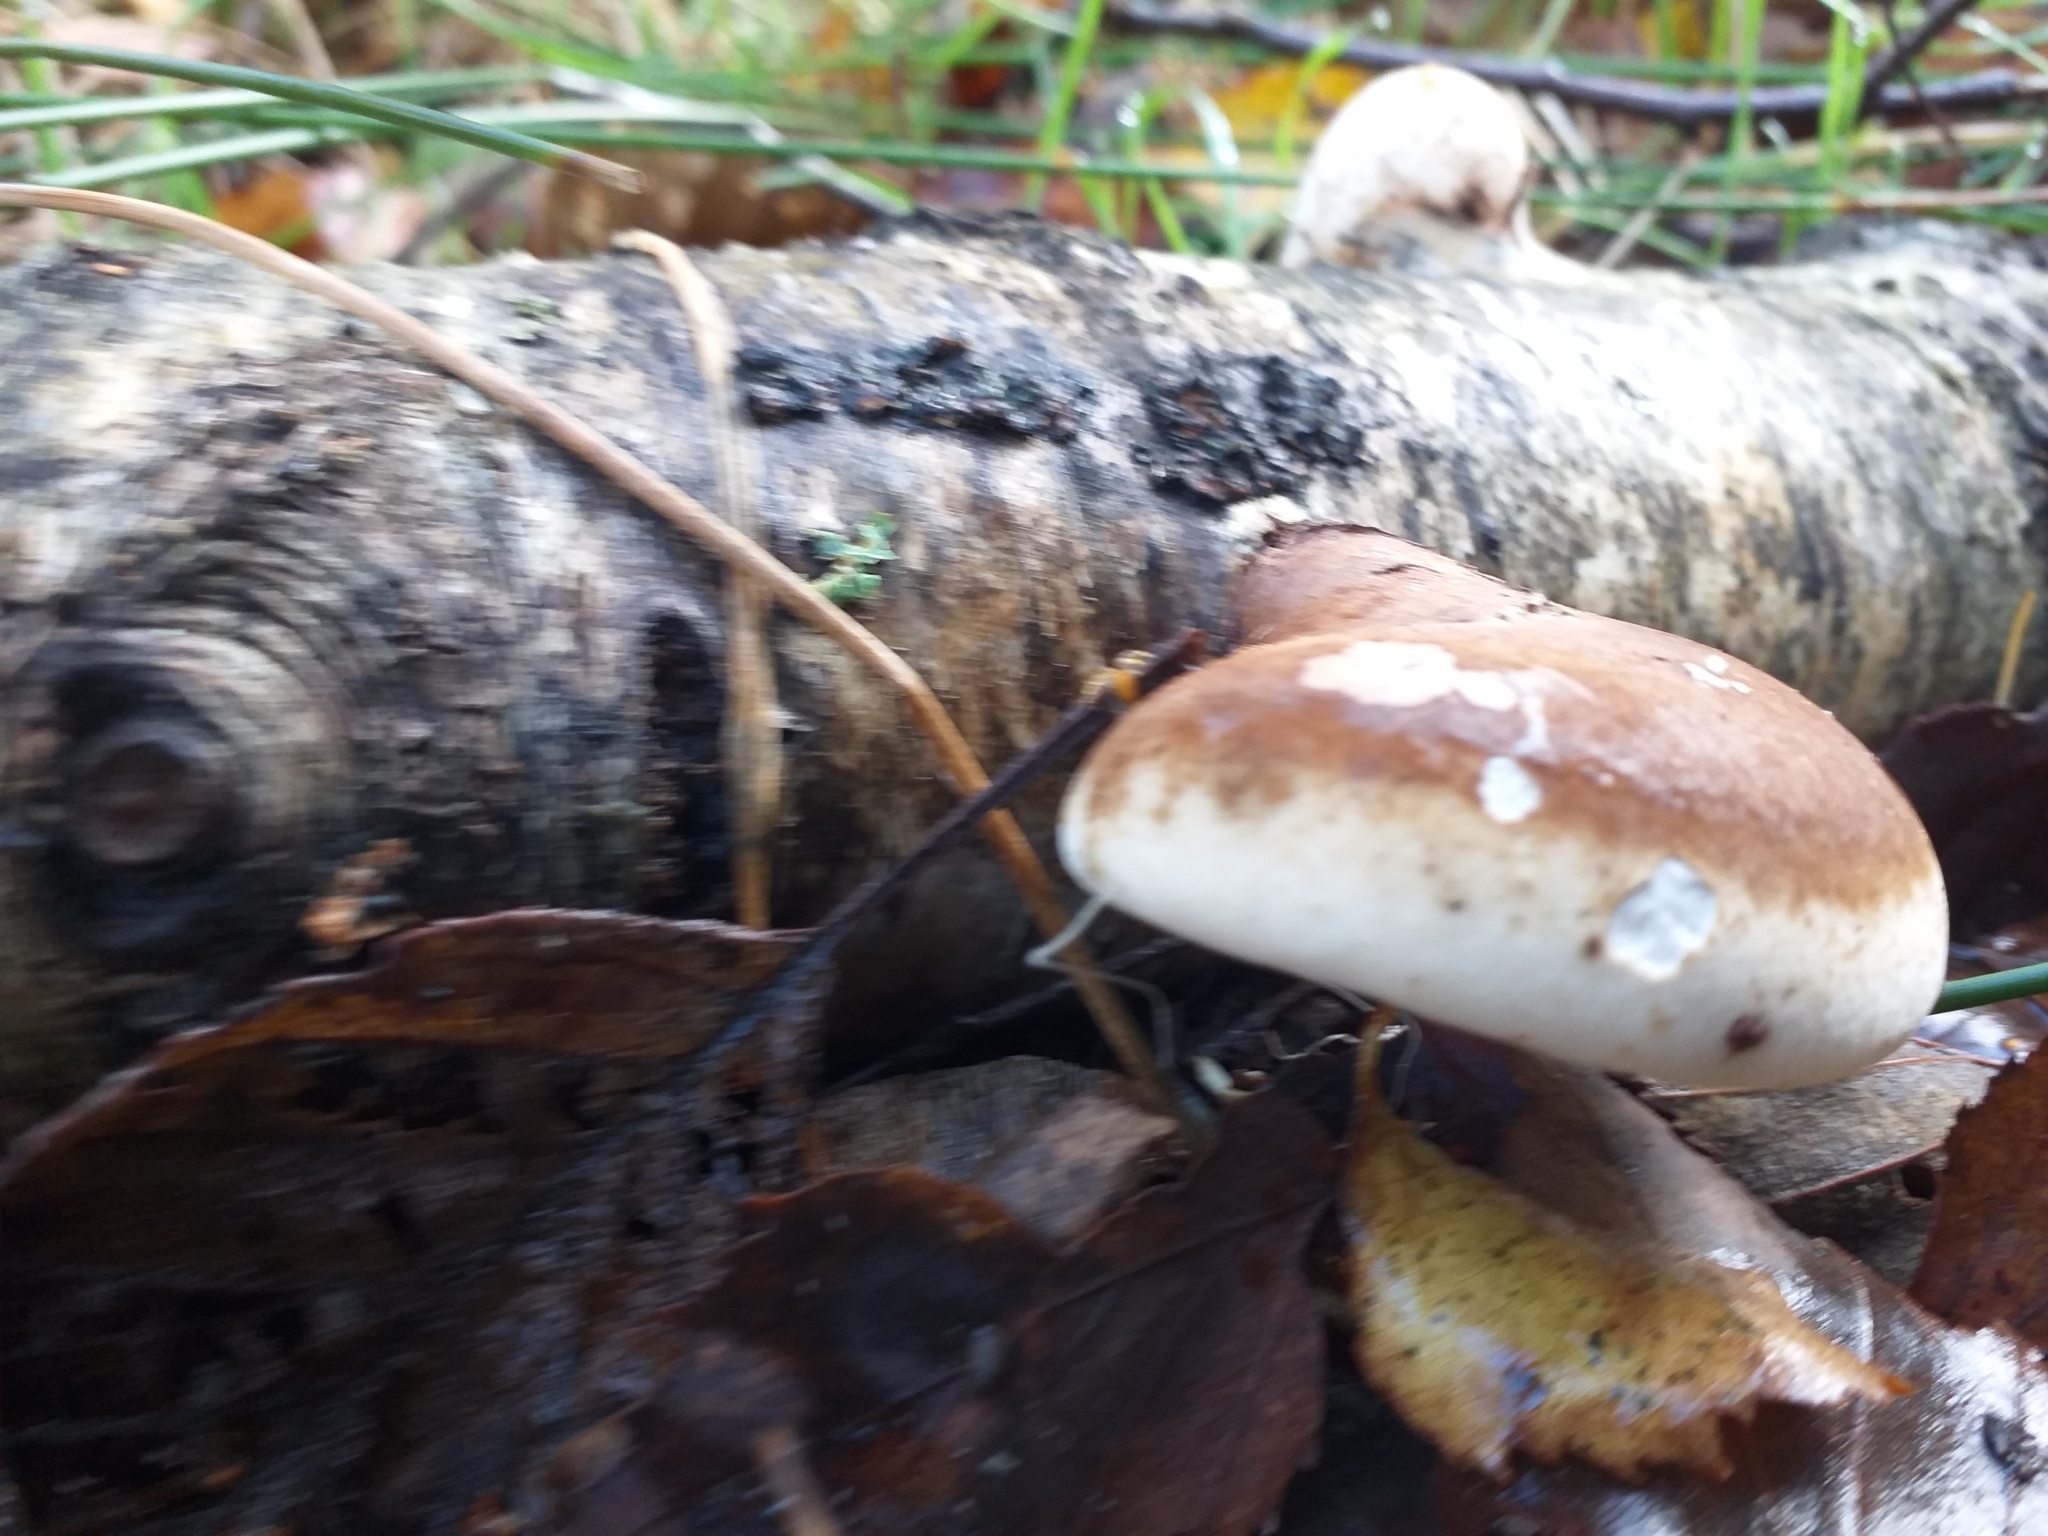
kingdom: Fungi
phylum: Basidiomycota
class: Agaricomycetes
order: Polyporales
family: Fomitopsidaceae
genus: Fomitopsis
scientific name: Fomitopsis betulina
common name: Birch polypore
